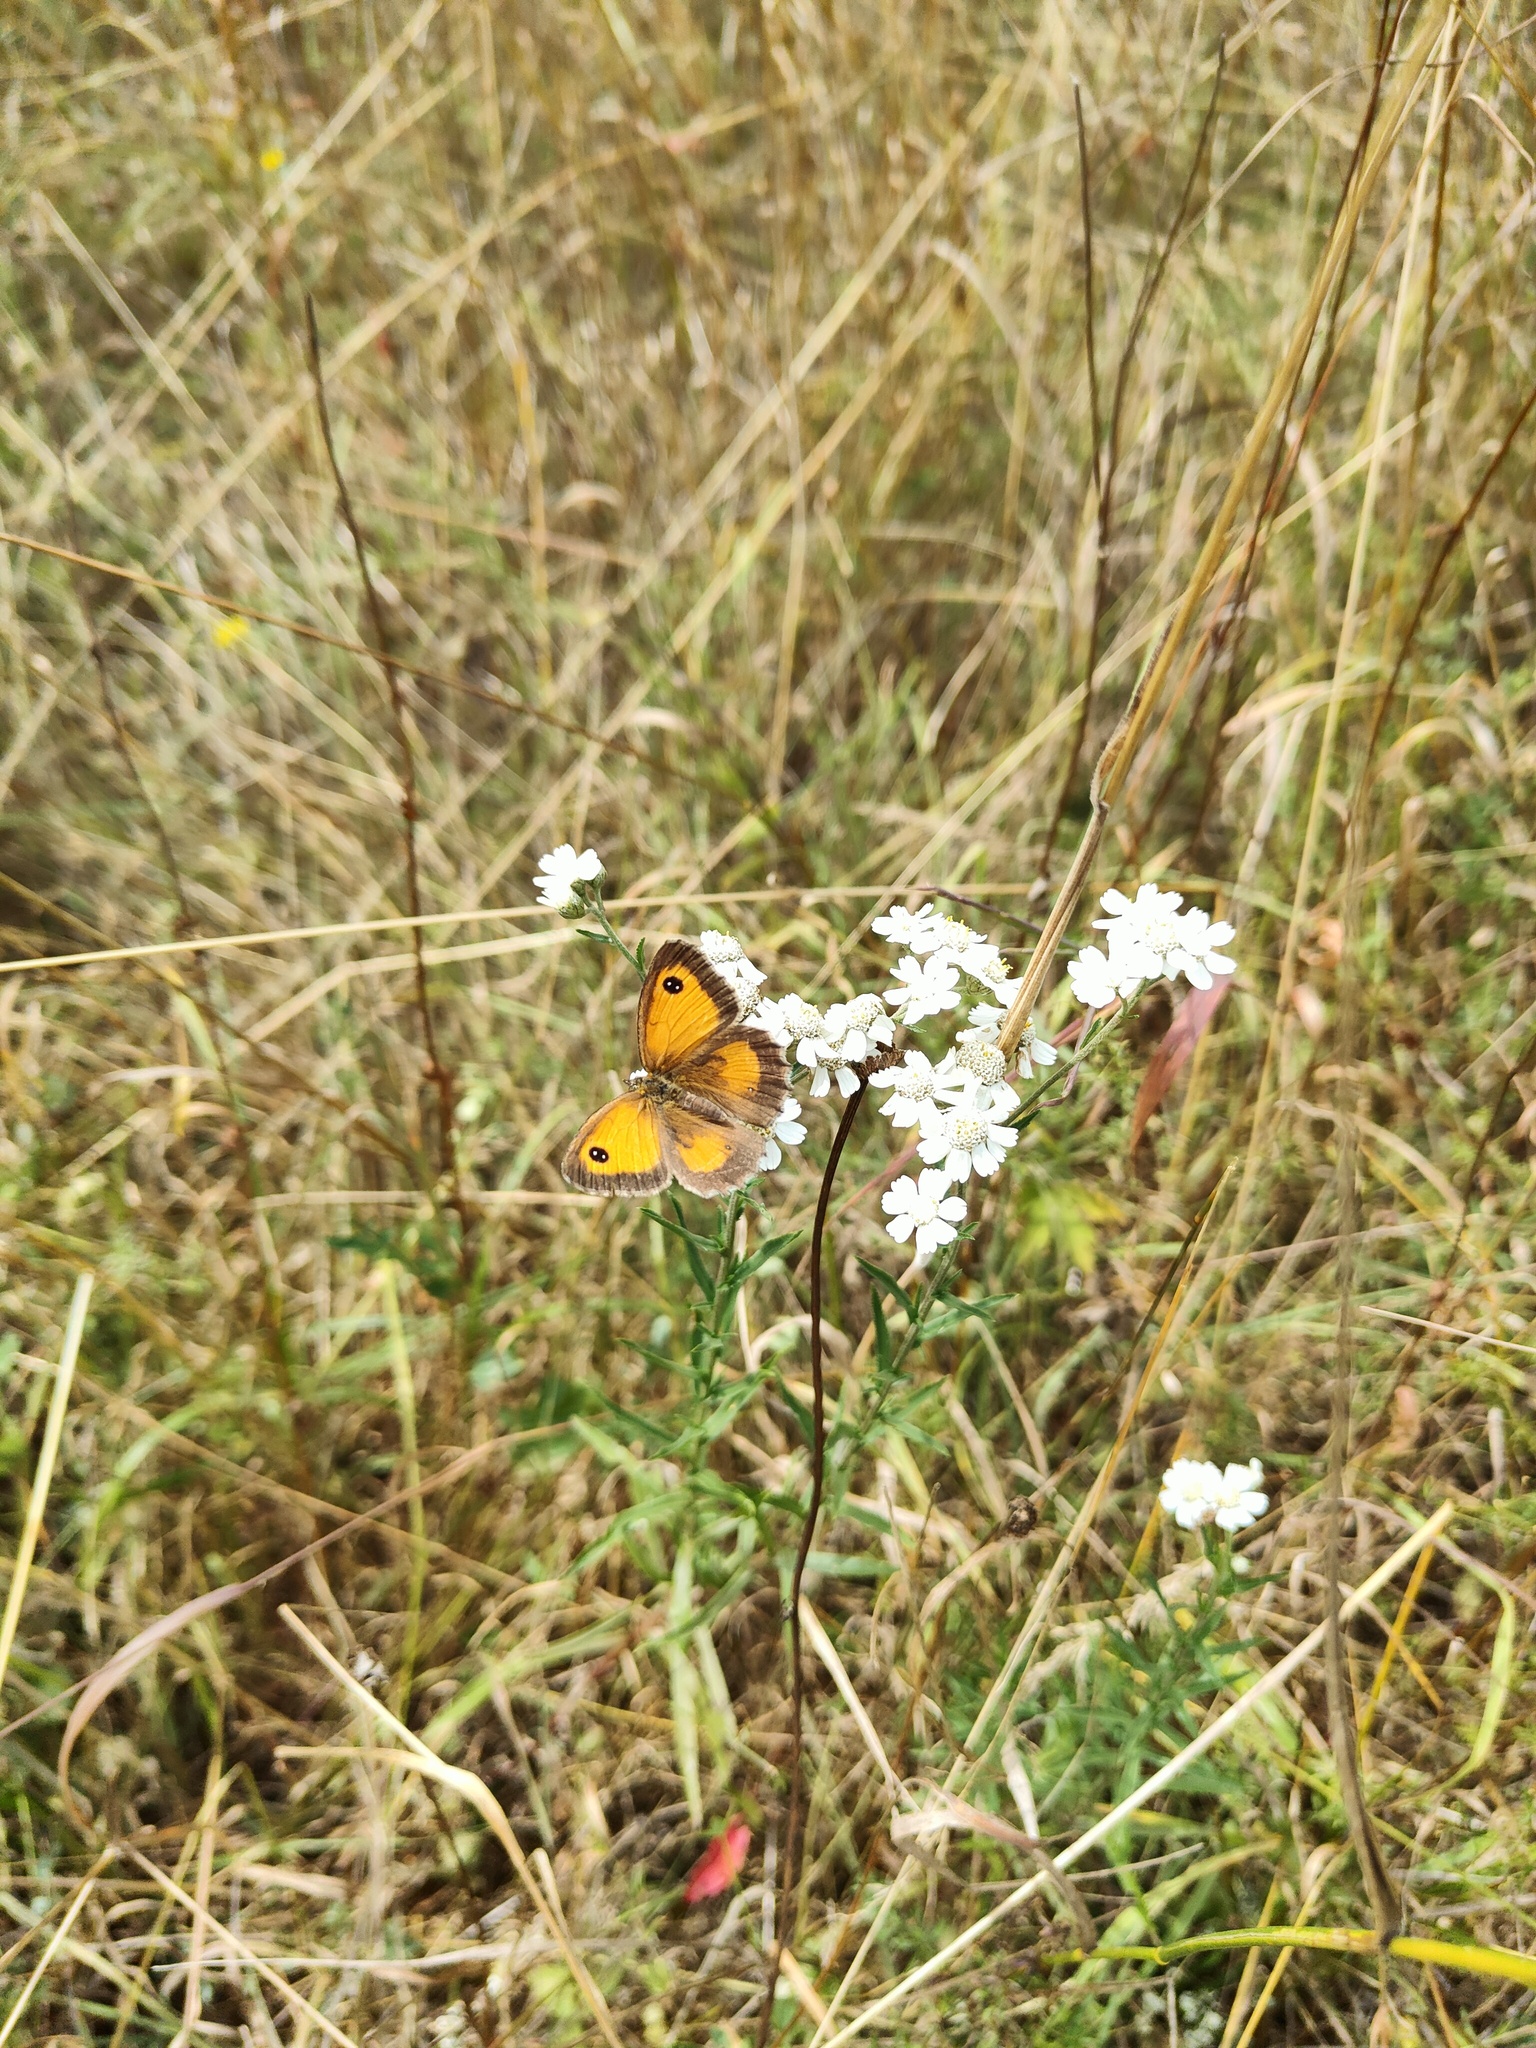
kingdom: Animalia
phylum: Arthropoda
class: Insecta
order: Lepidoptera
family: Nymphalidae
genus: Pyronia
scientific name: Pyronia tithonus
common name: Gatekeeper
